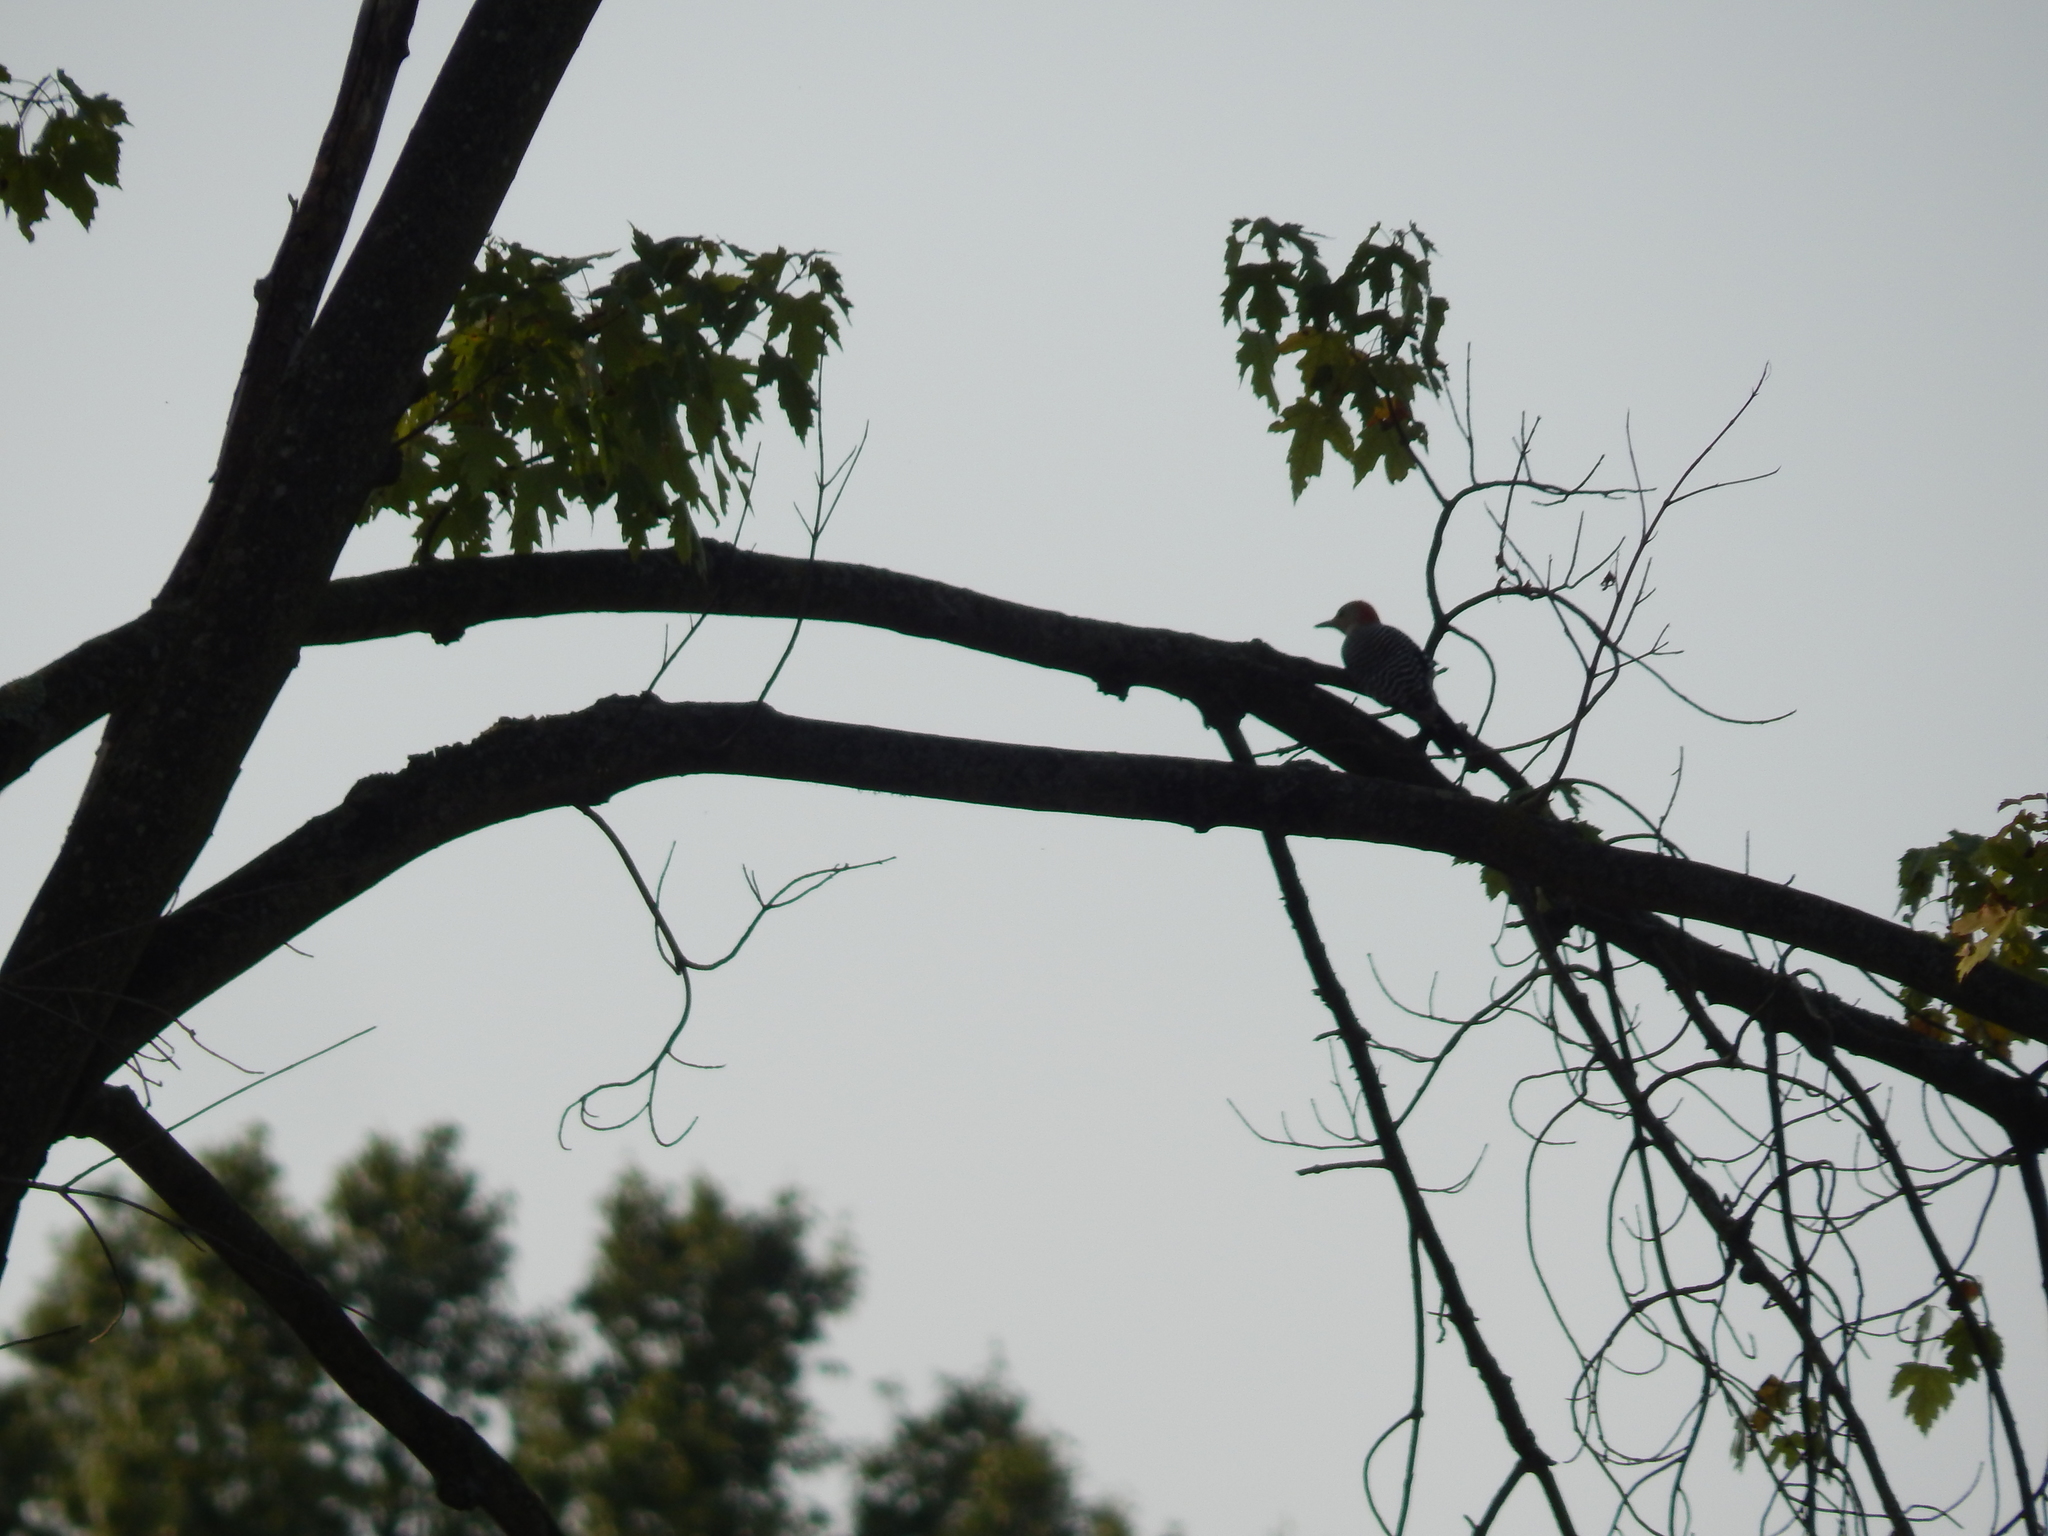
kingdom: Animalia
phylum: Chordata
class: Aves
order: Piciformes
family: Picidae
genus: Melanerpes
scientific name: Melanerpes carolinus
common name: Red-bellied woodpecker
